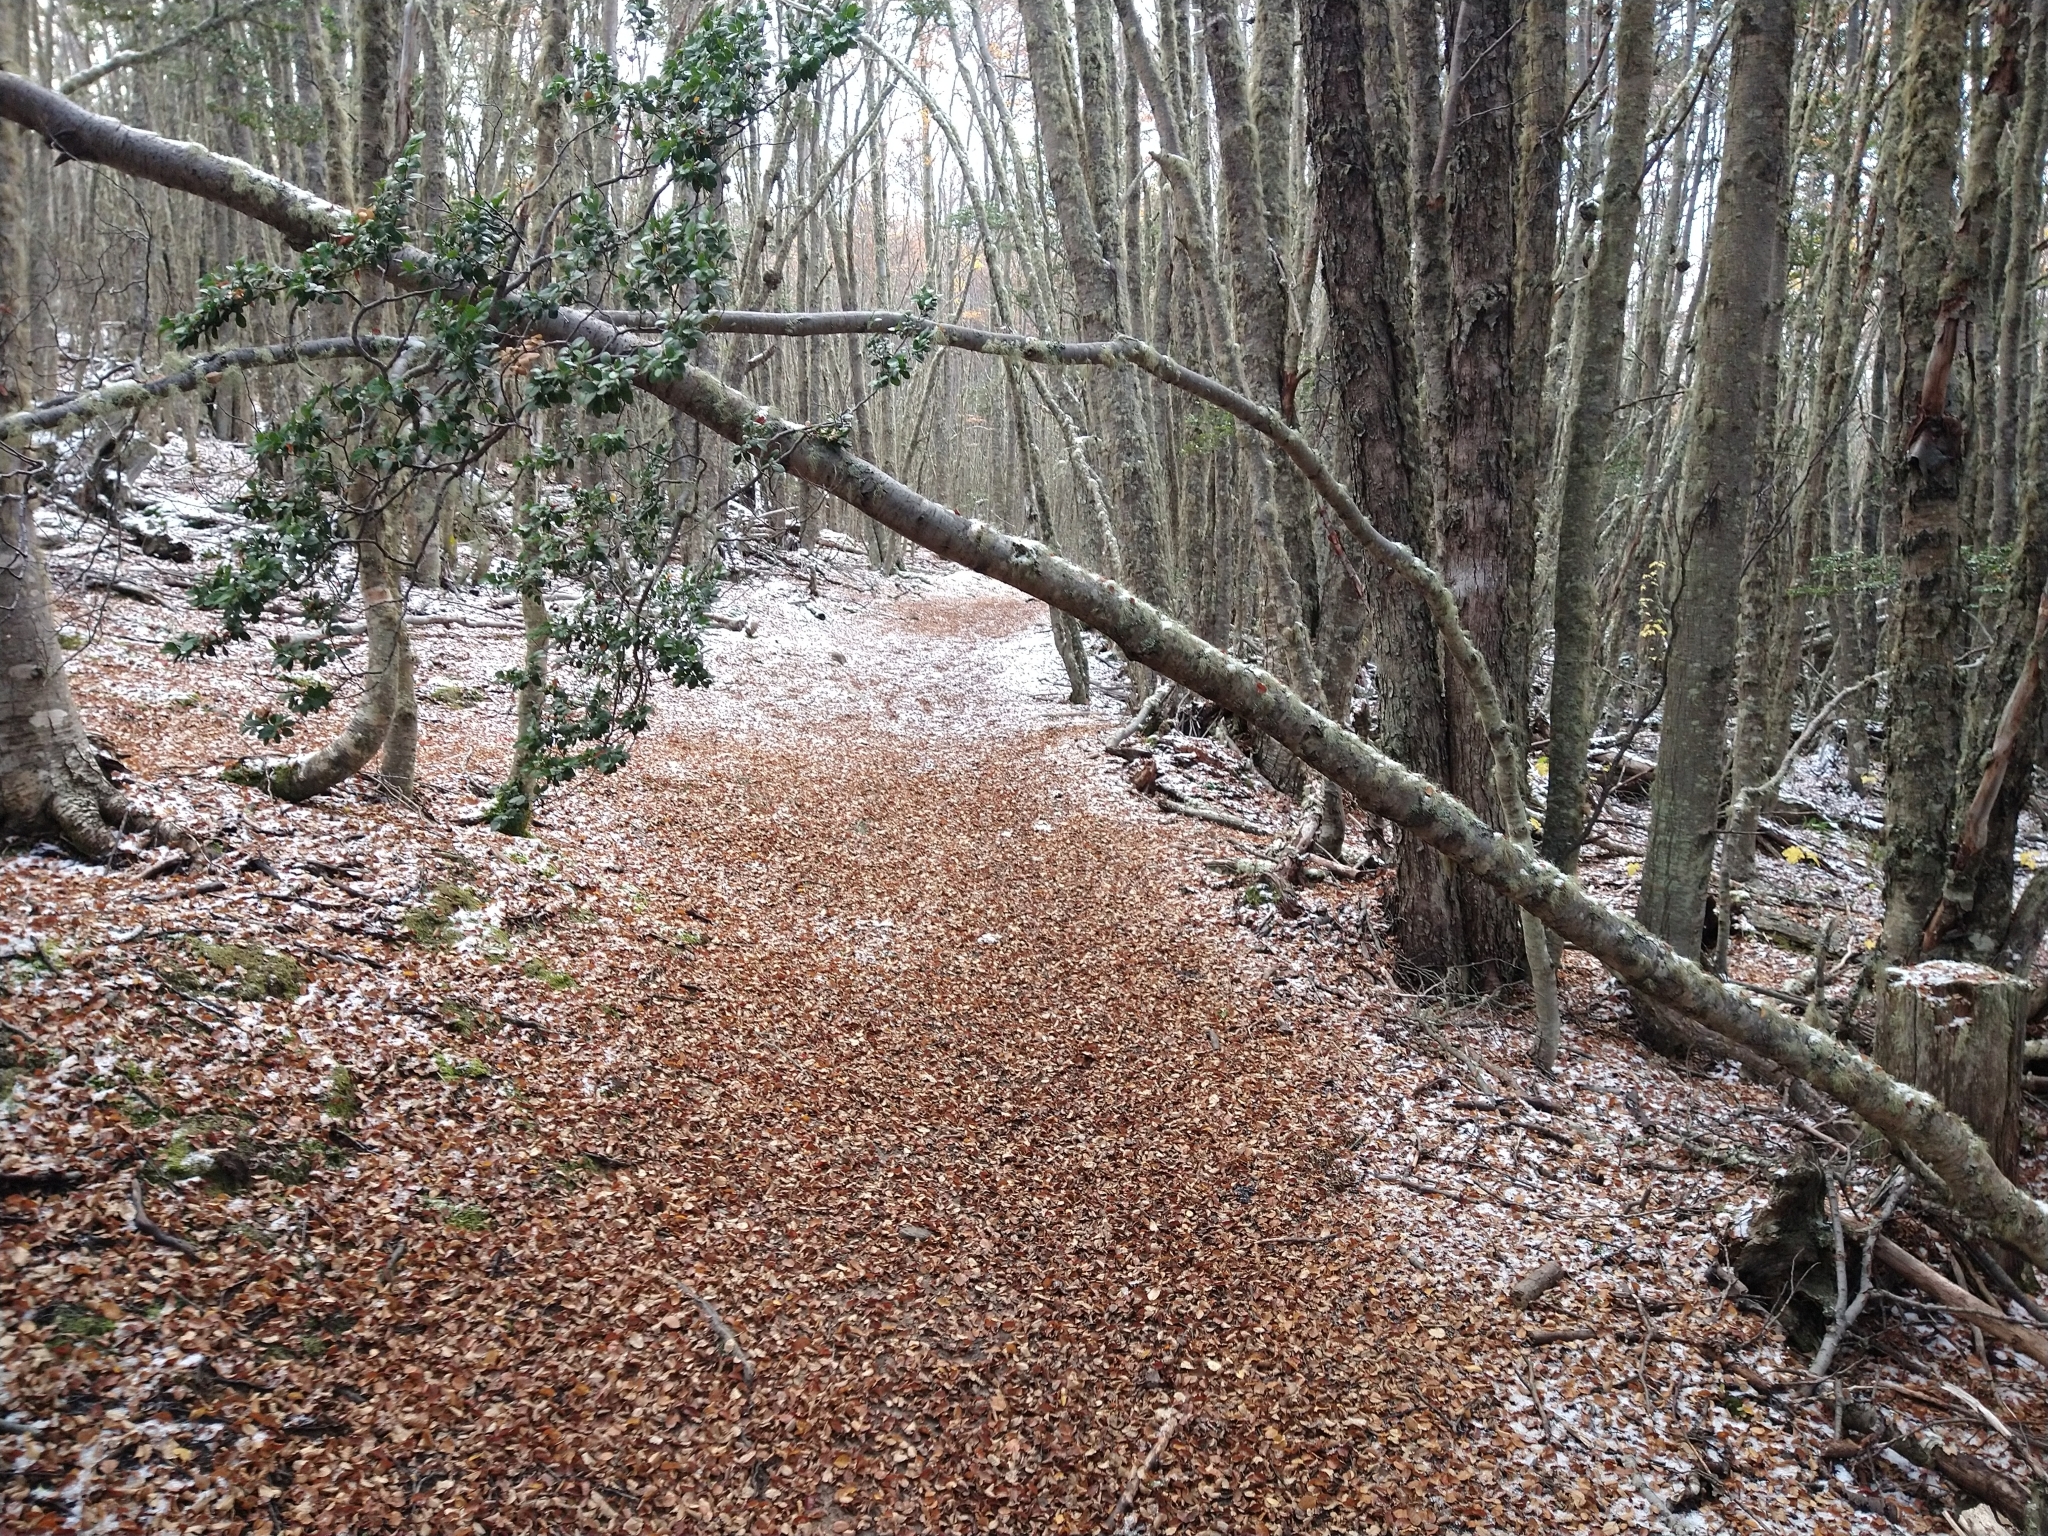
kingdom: Plantae
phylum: Tracheophyta
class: Magnoliopsida
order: Fagales
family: Nothofagaceae
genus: Nothofagus
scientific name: Nothofagus betuloides
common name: Magellan's beech
